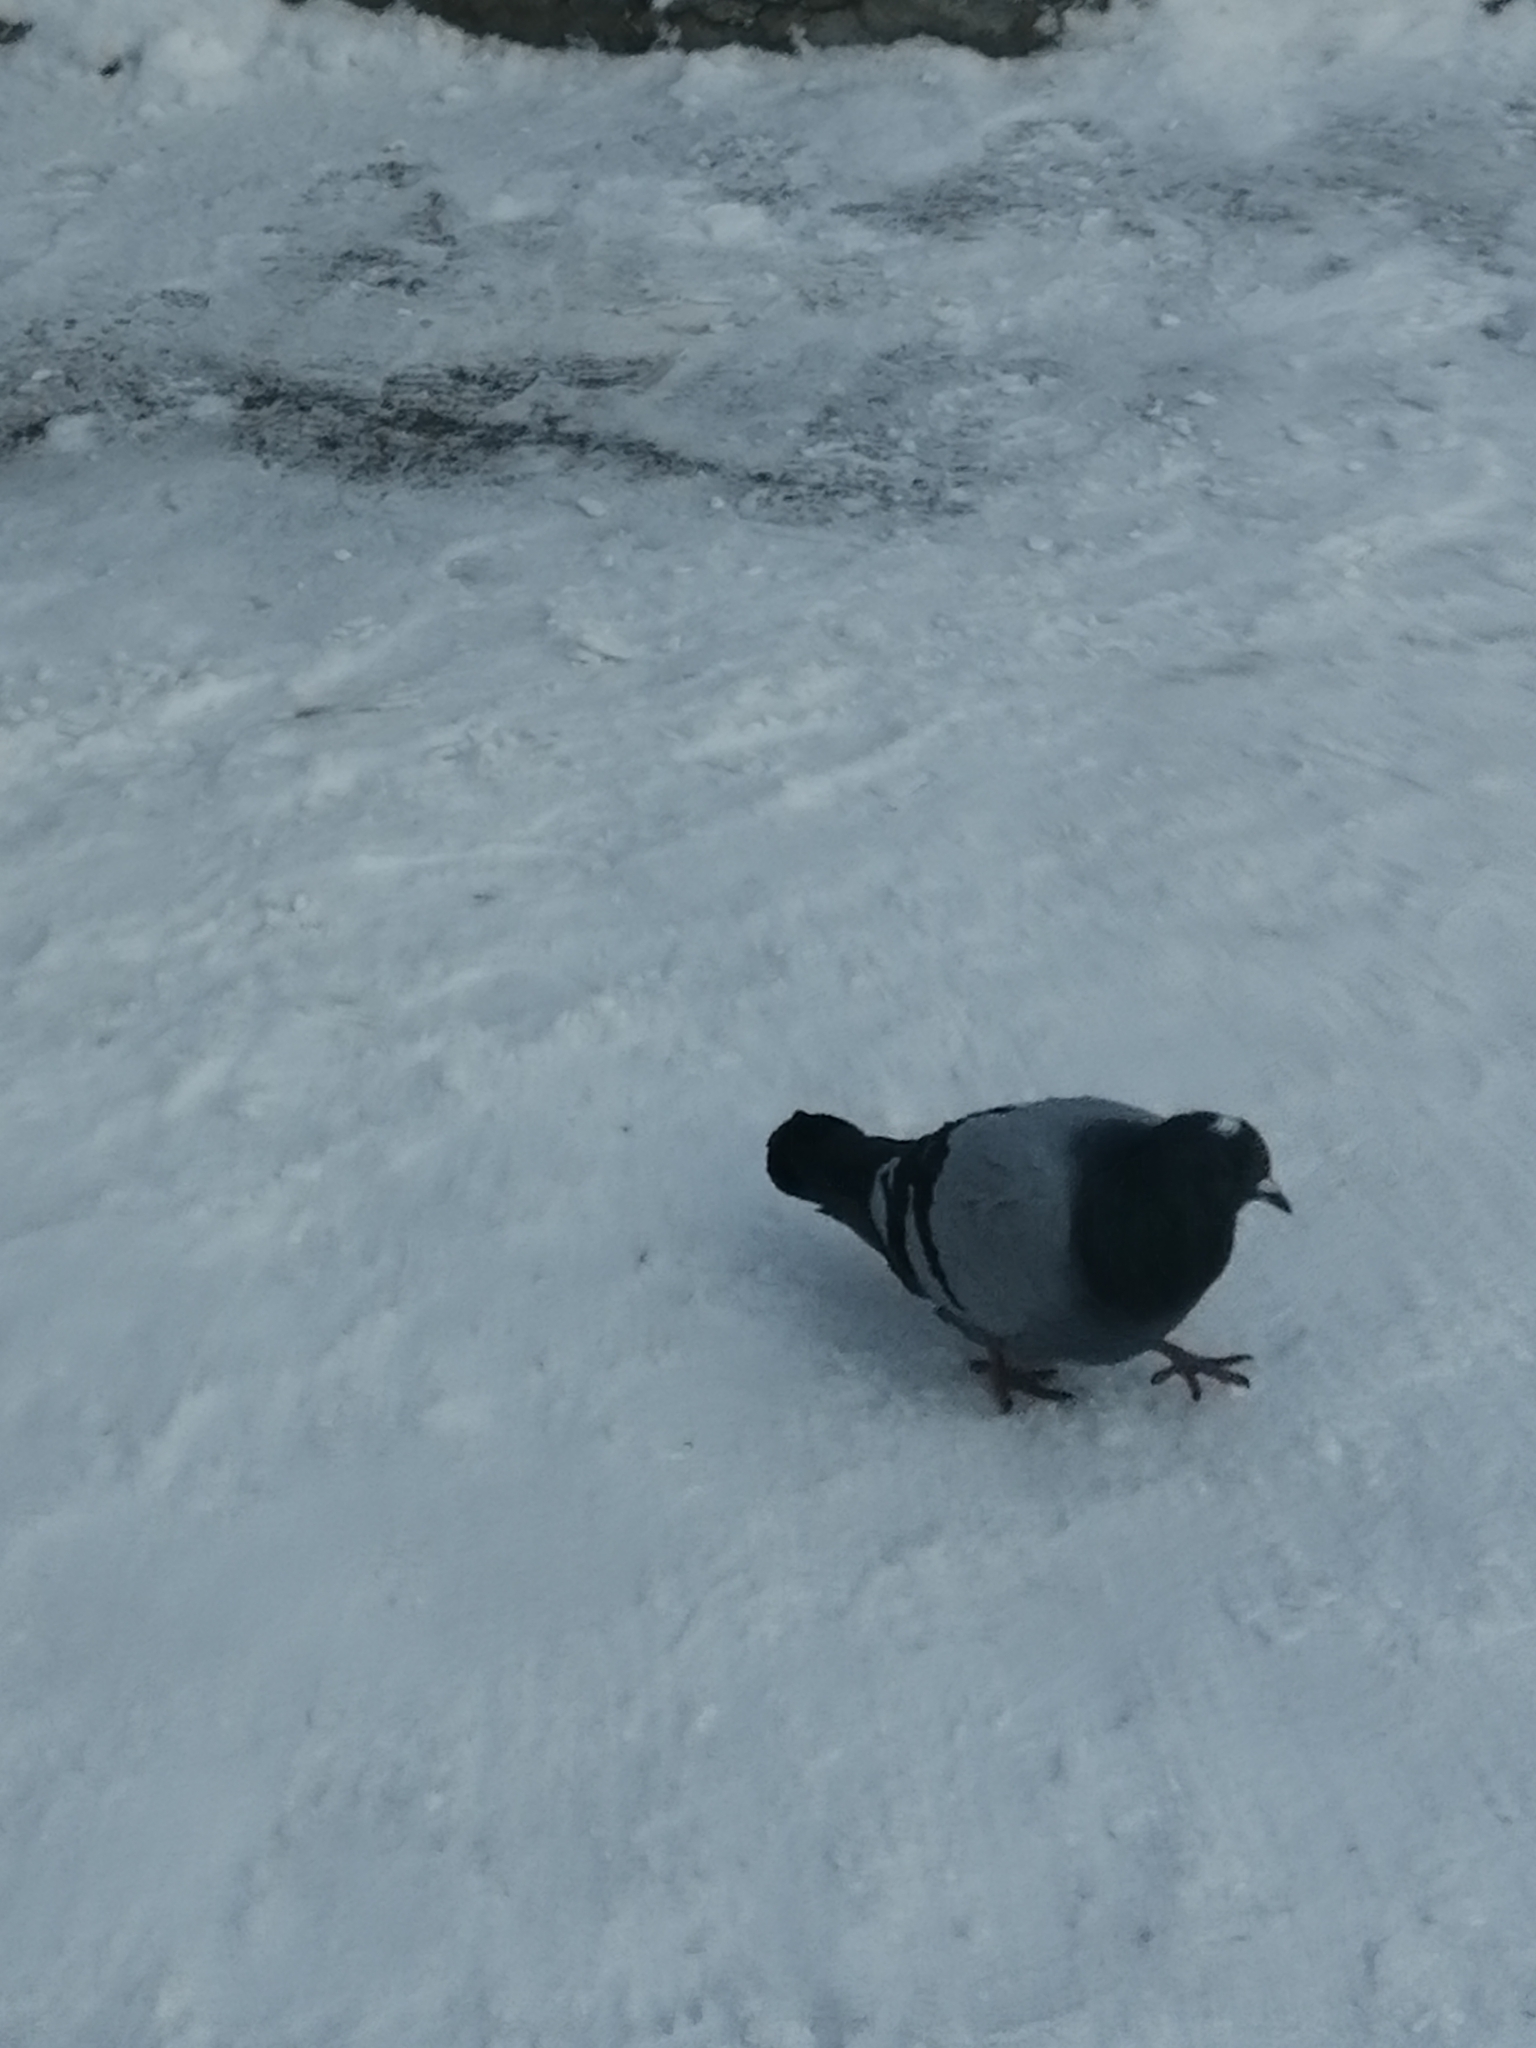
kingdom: Animalia
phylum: Chordata
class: Aves
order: Columbiformes
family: Columbidae
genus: Columba
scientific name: Columba livia
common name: Rock pigeon
